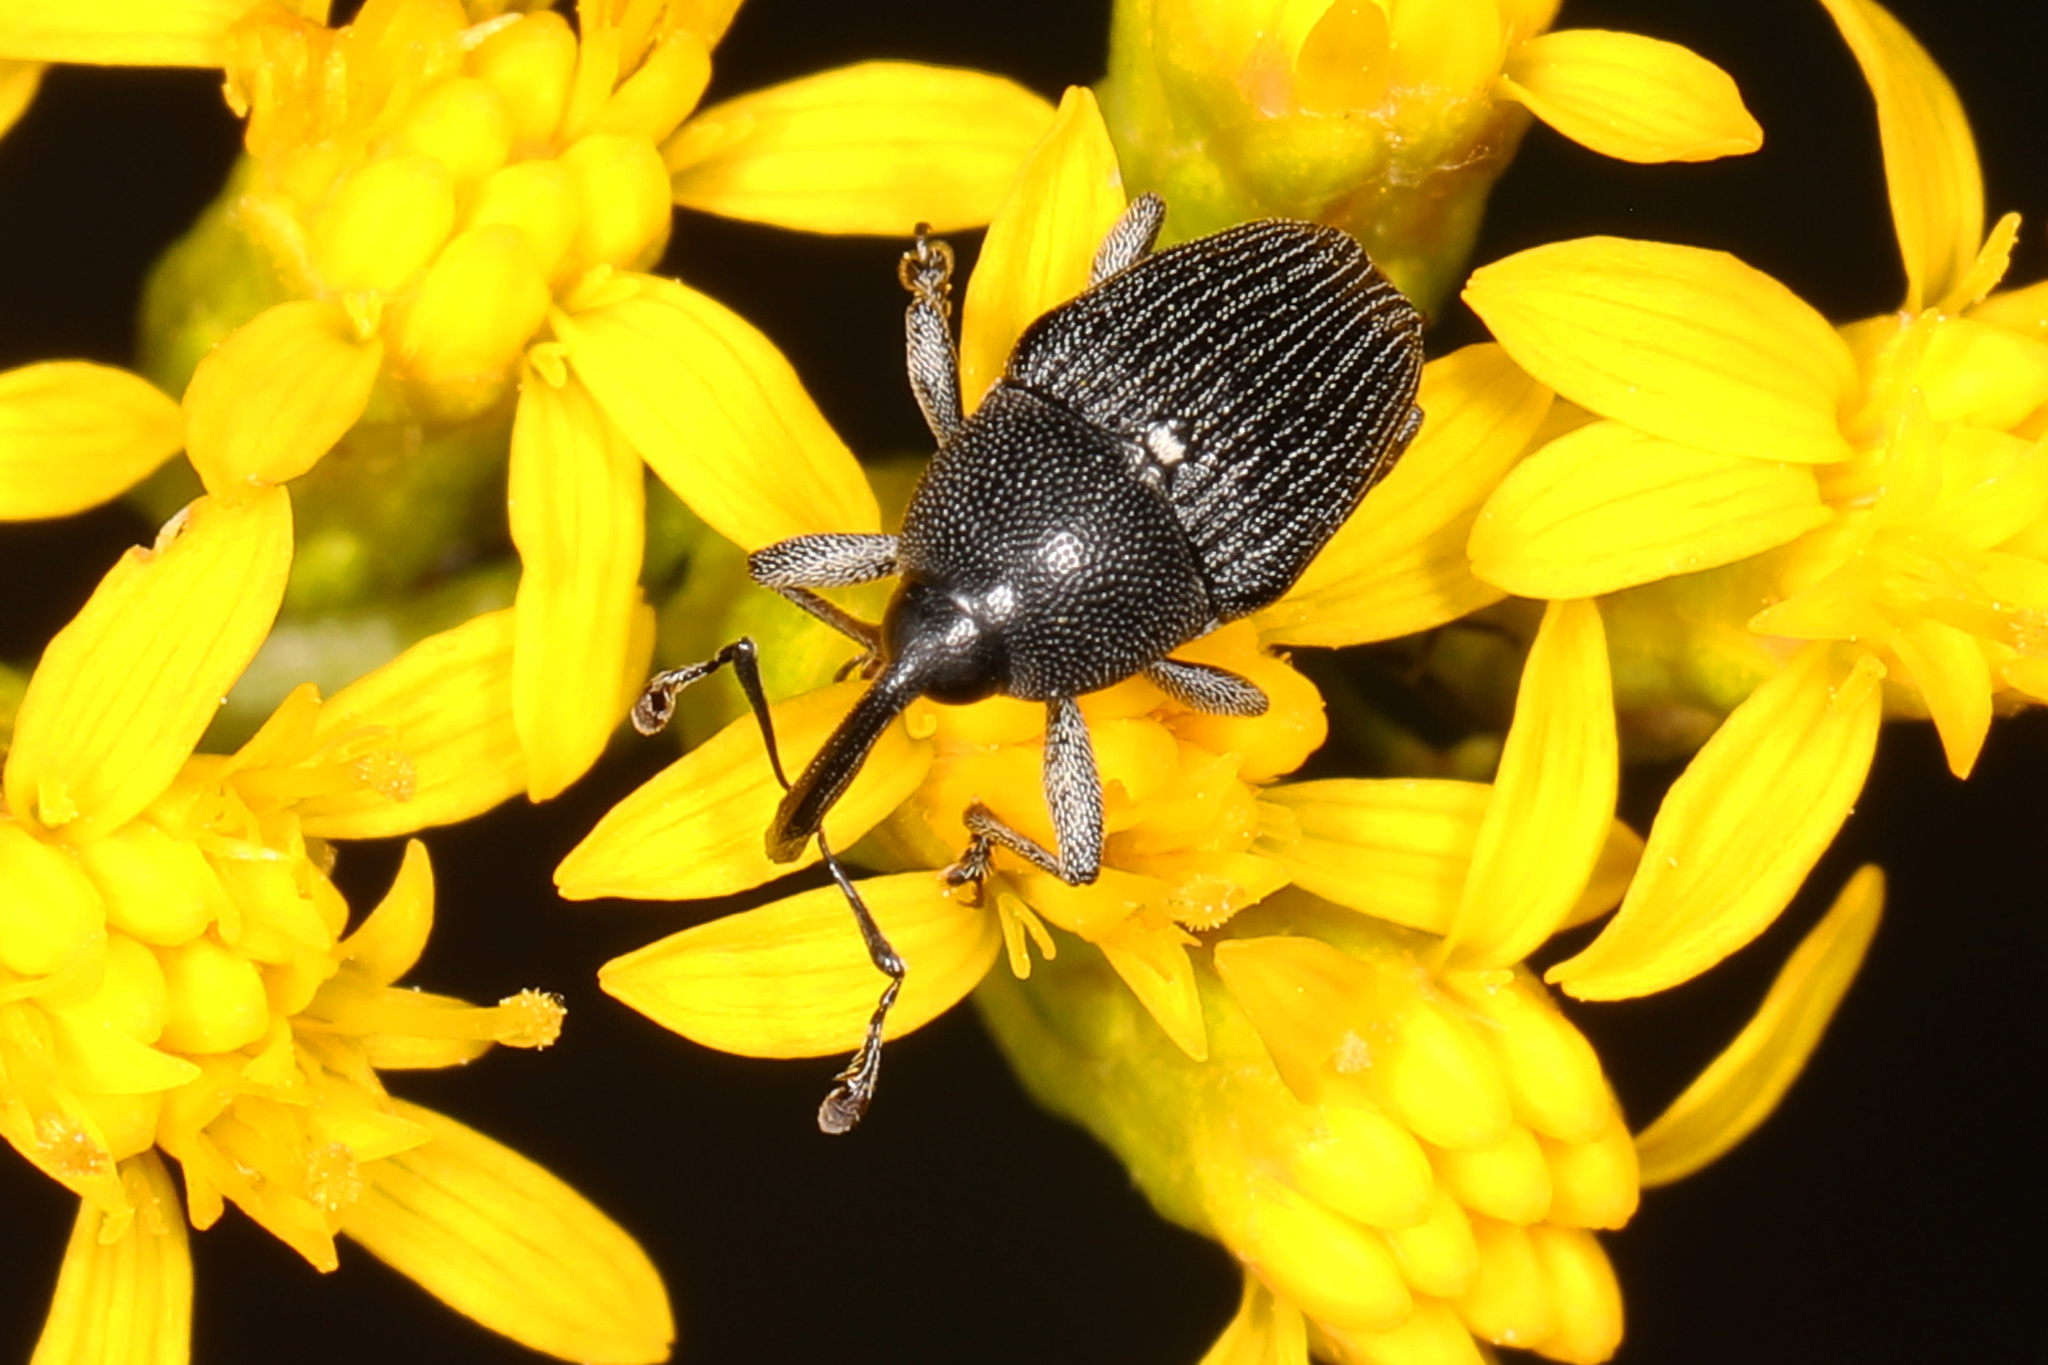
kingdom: Animalia
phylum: Arthropoda
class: Insecta
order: Coleoptera
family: Curculionidae
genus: Odontocorynus
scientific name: Odontocorynus umbellae
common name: Daisy flower weevil
